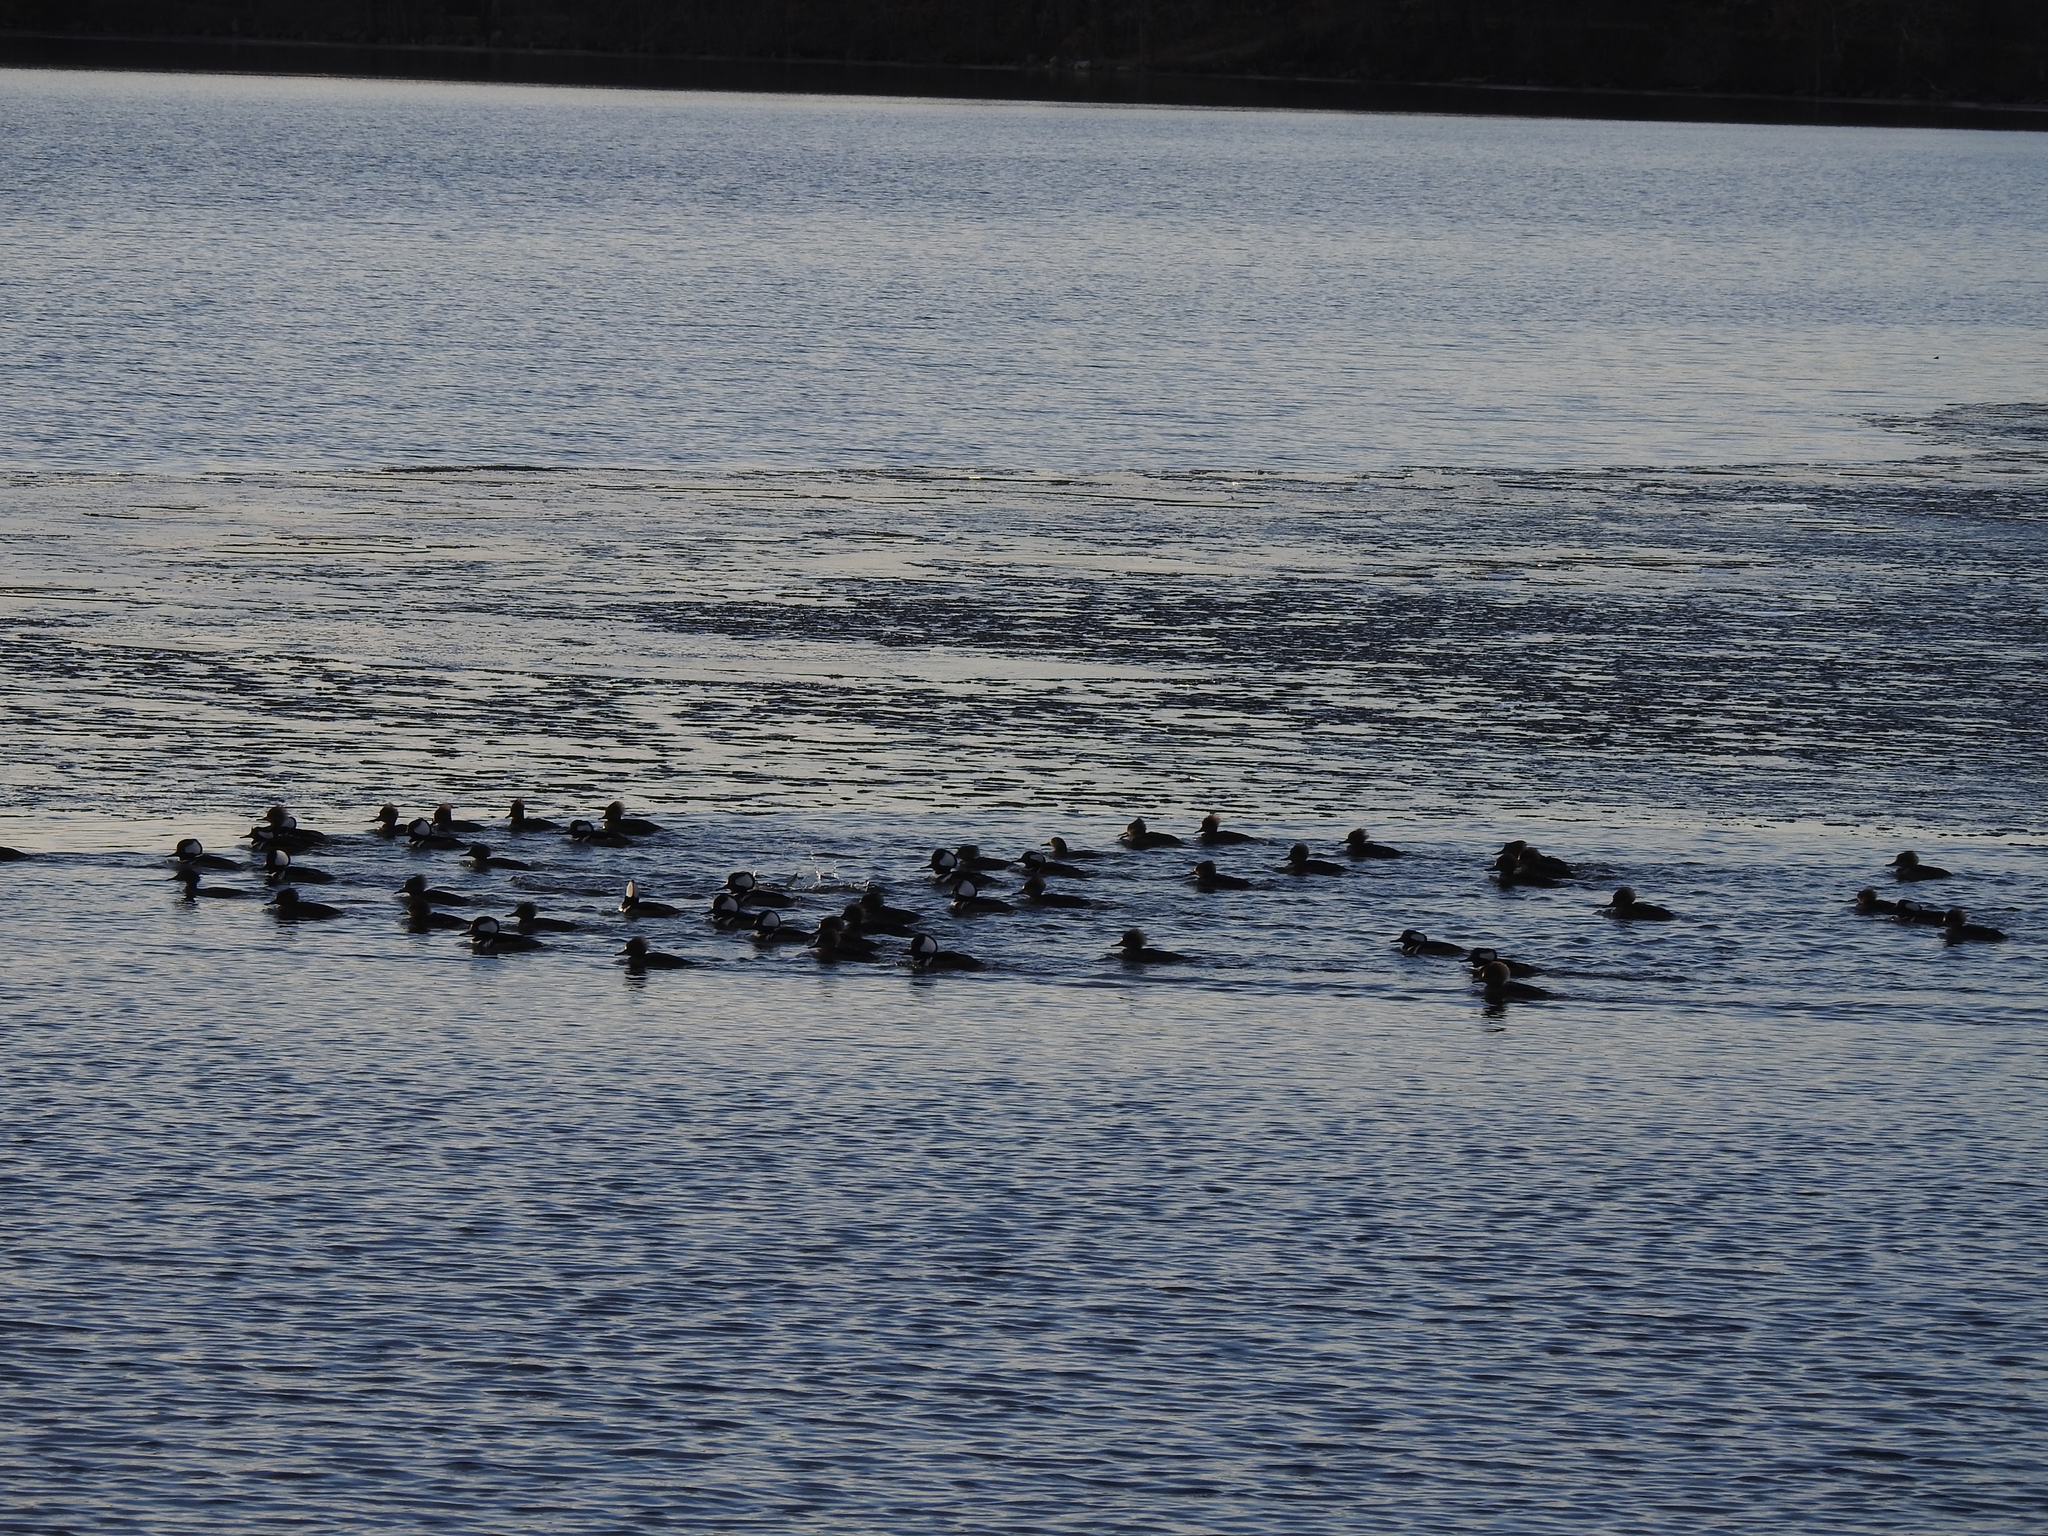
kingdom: Animalia
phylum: Chordata
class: Aves
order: Anseriformes
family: Anatidae
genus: Lophodytes
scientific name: Lophodytes cucullatus
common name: Hooded merganser
